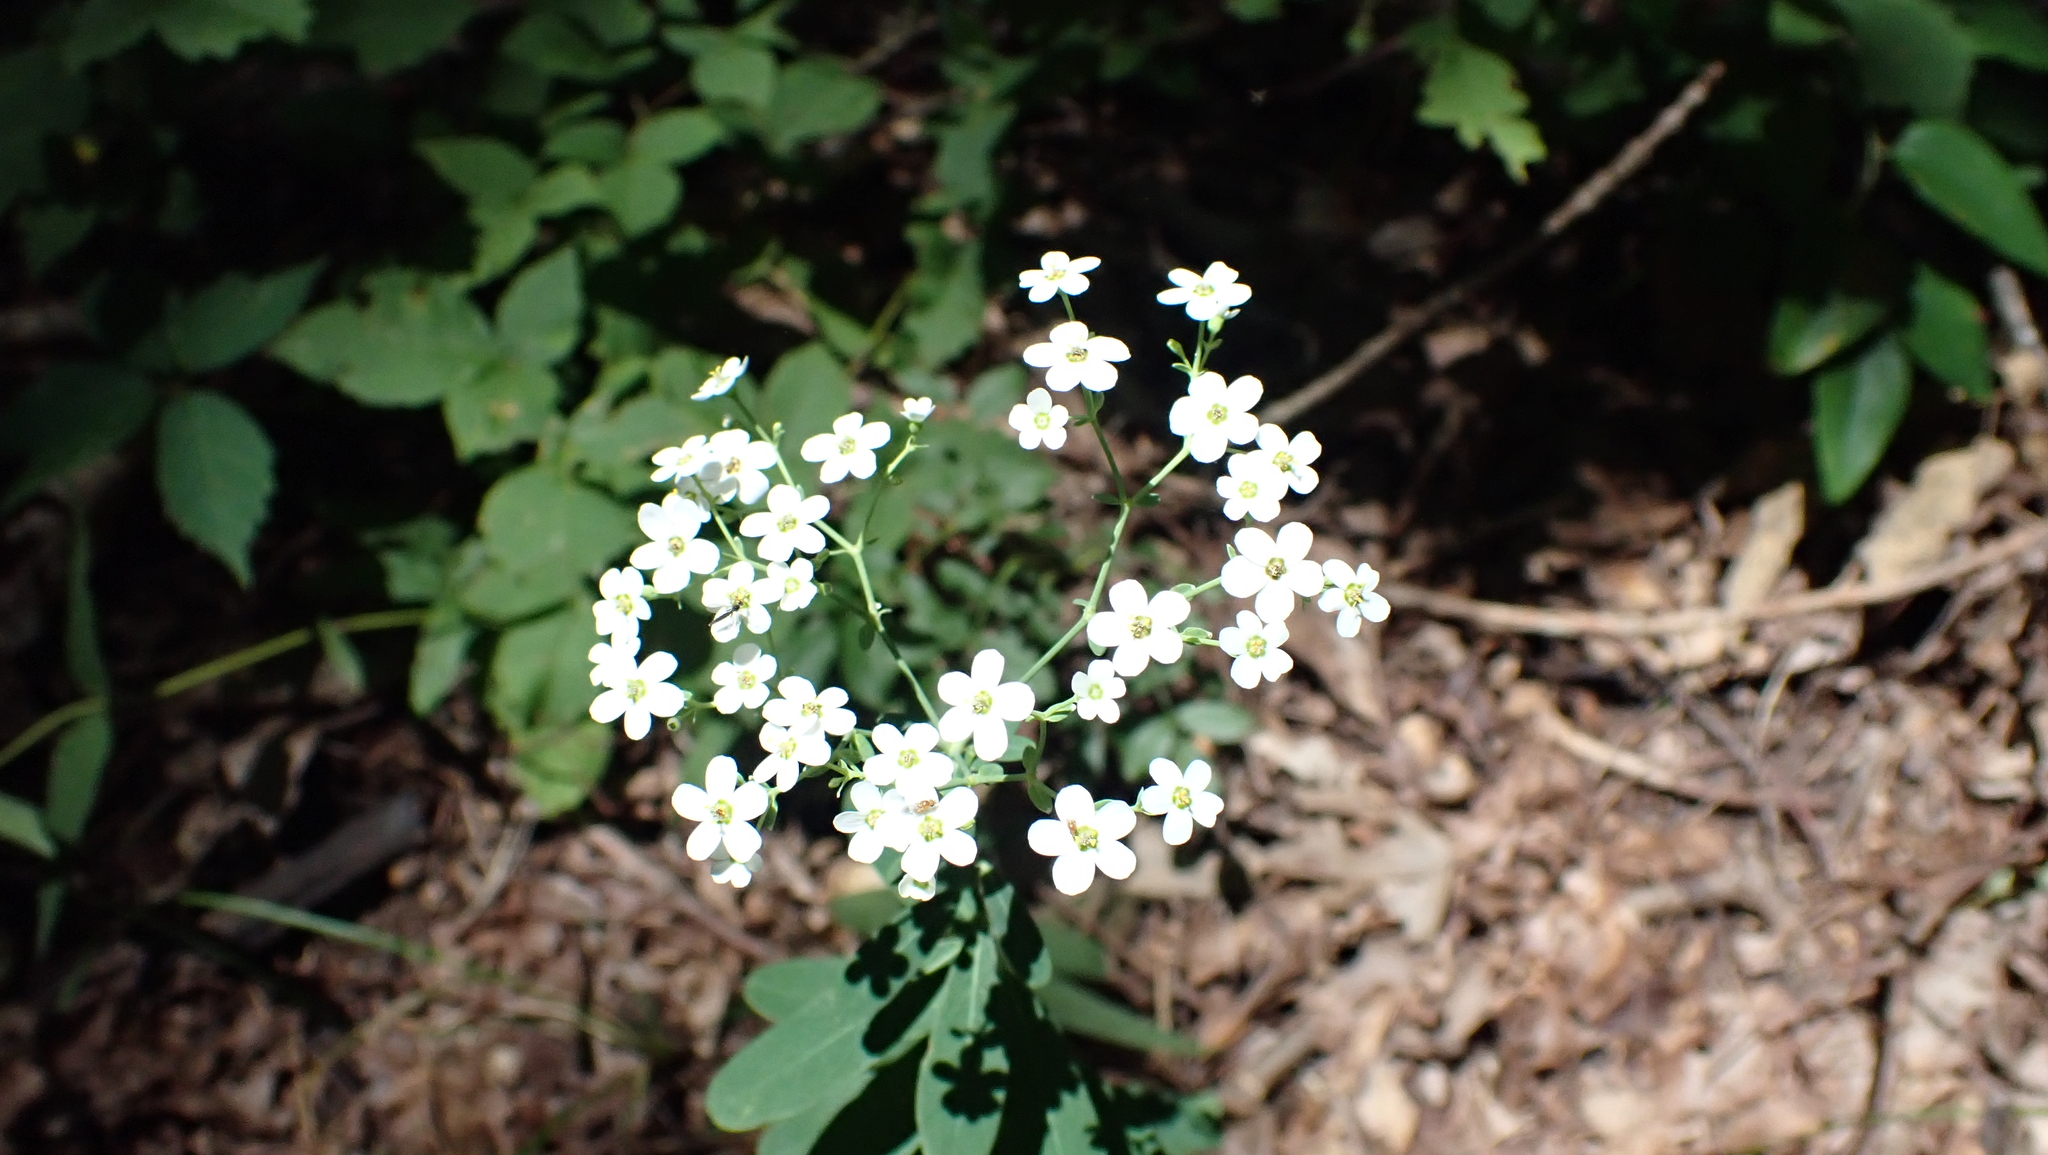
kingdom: Plantae
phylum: Tracheophyta
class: Magnoliopsida
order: Malpighiales
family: Euphorbiaceae
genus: Euphorbia
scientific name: Euphorbia corollata
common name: Flowering spurge
